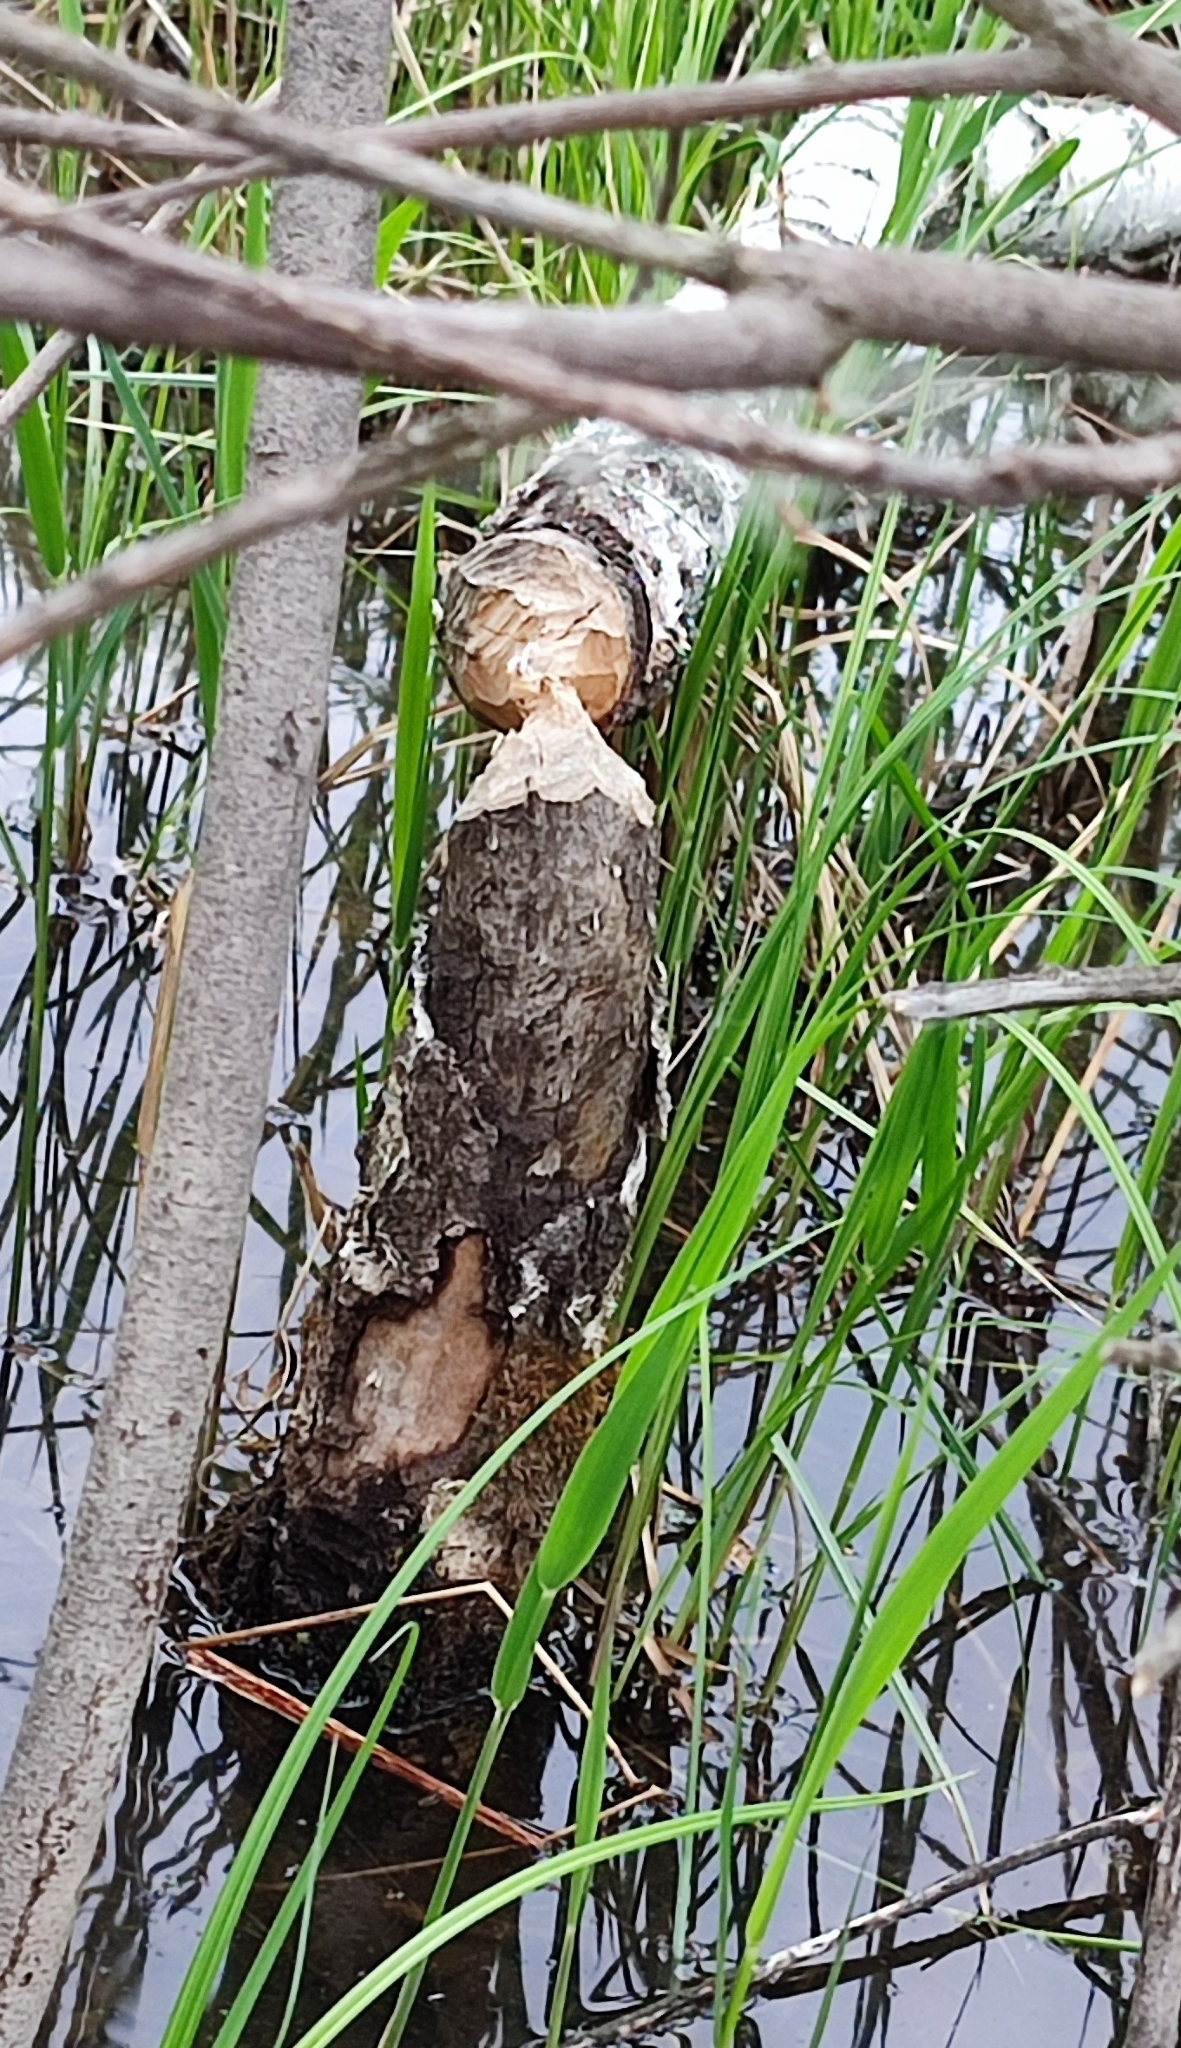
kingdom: Animalia
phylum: Chordata
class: Mammalia
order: Rodentia
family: Castoridae
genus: Castor
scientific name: Castor fiber
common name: Eurasian beaver
